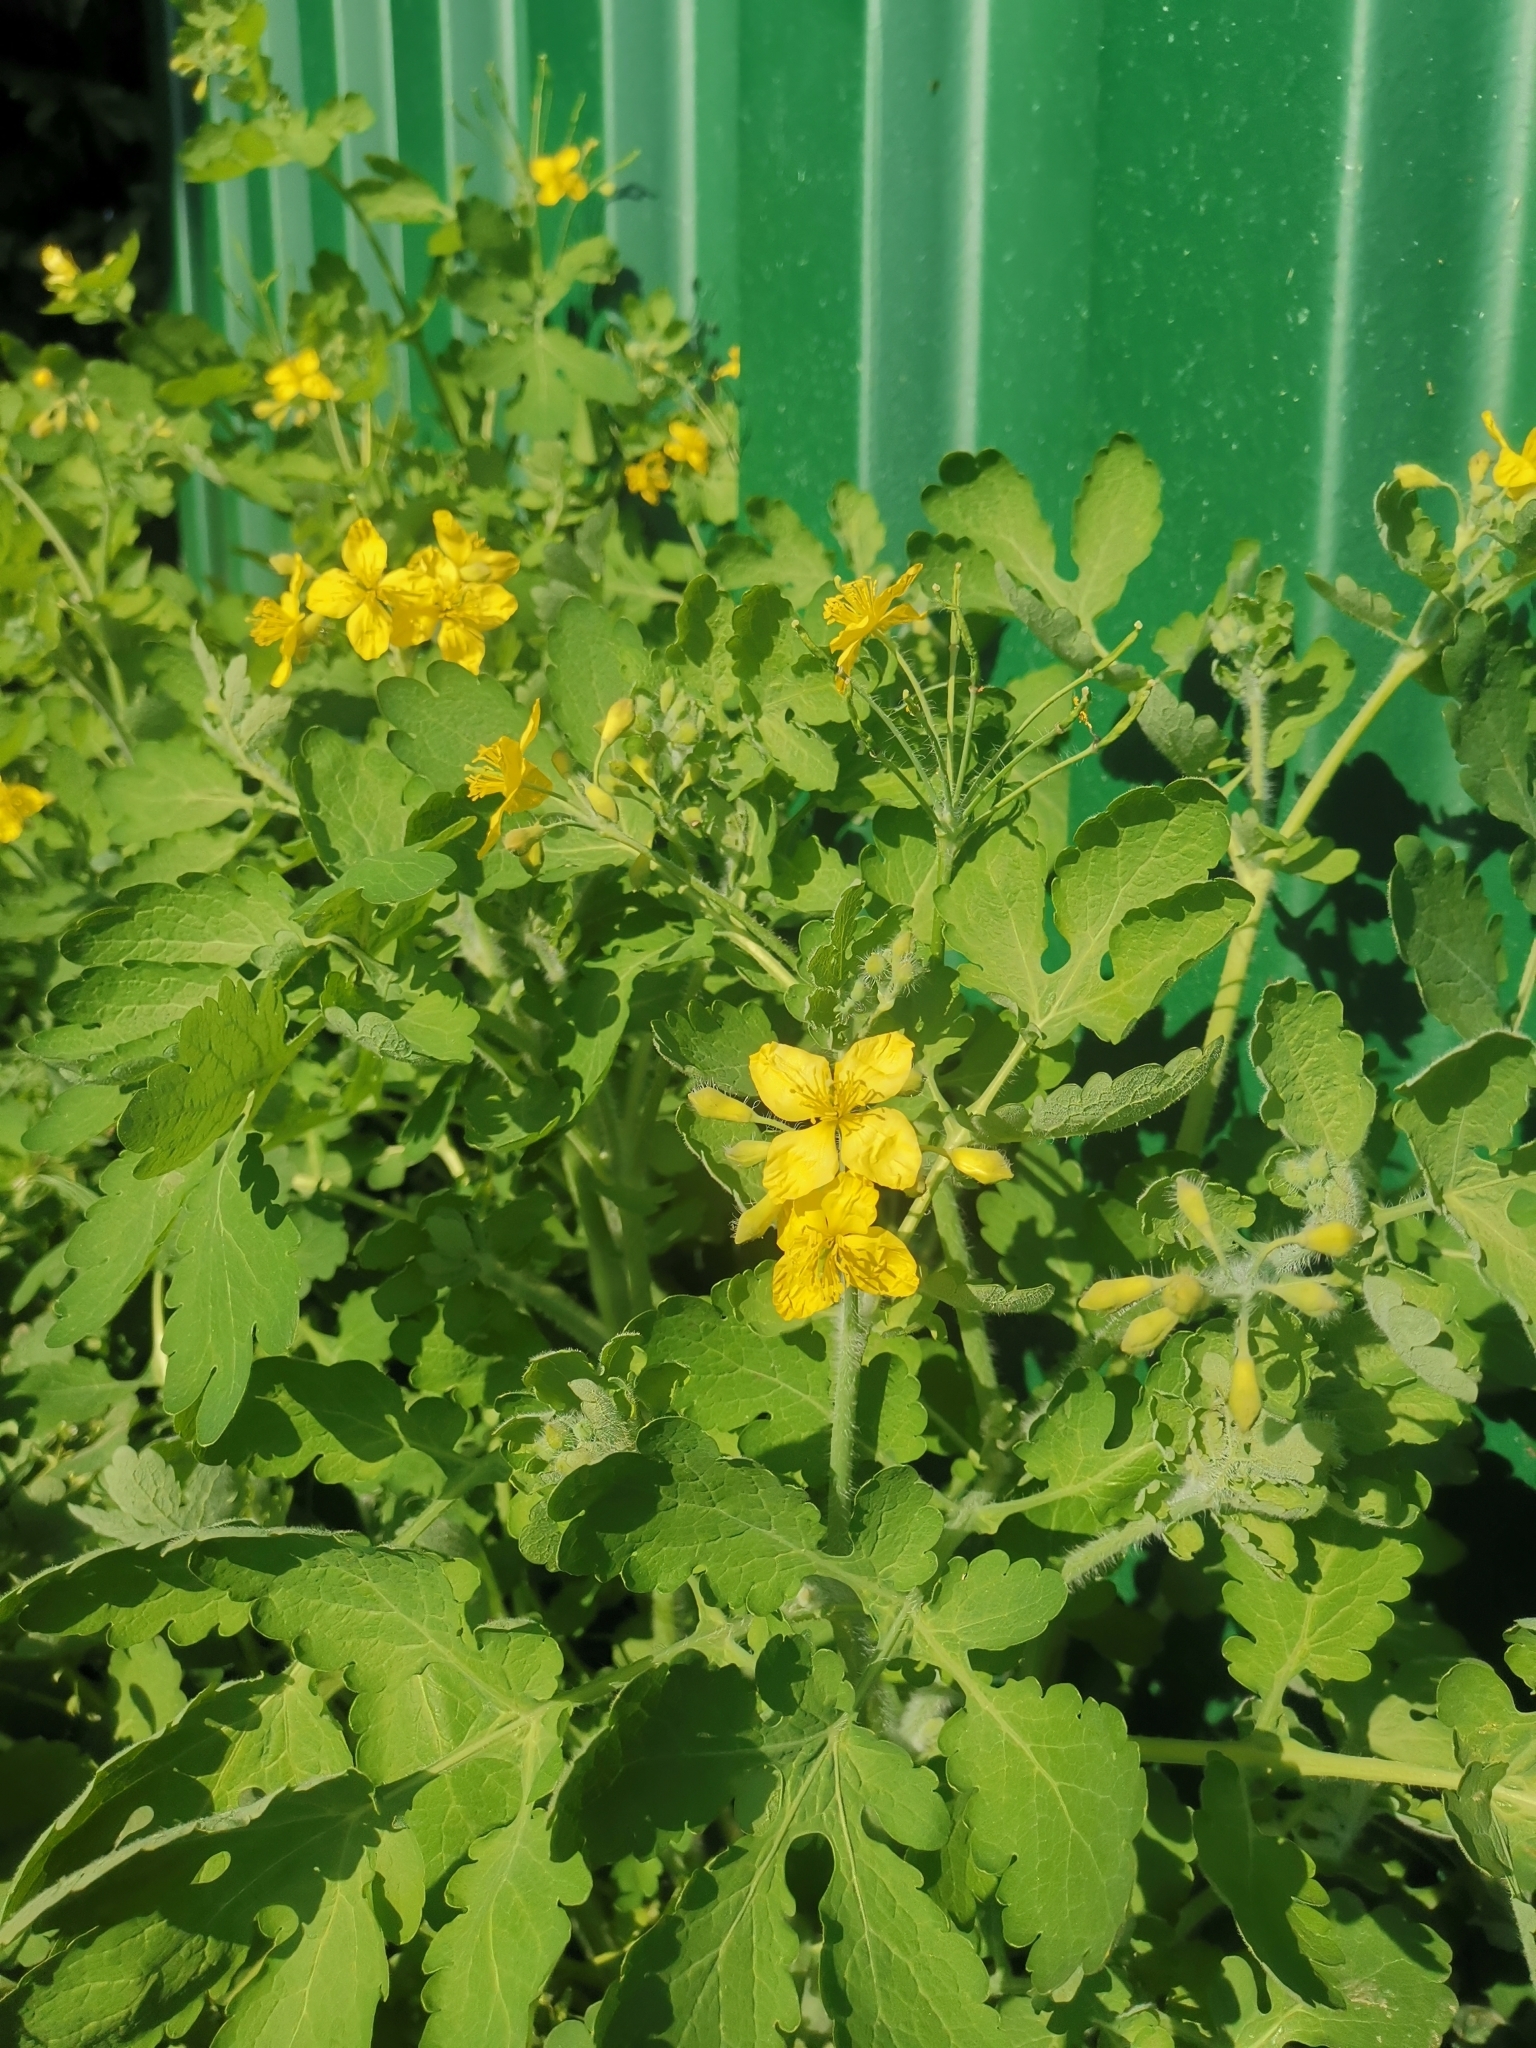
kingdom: Plantae
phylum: Tracheophyta
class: Magnoliopsida
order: Ranunculales
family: Papaveraceae
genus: Chelidonium
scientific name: Chelidonium majus
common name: Greater celandine
